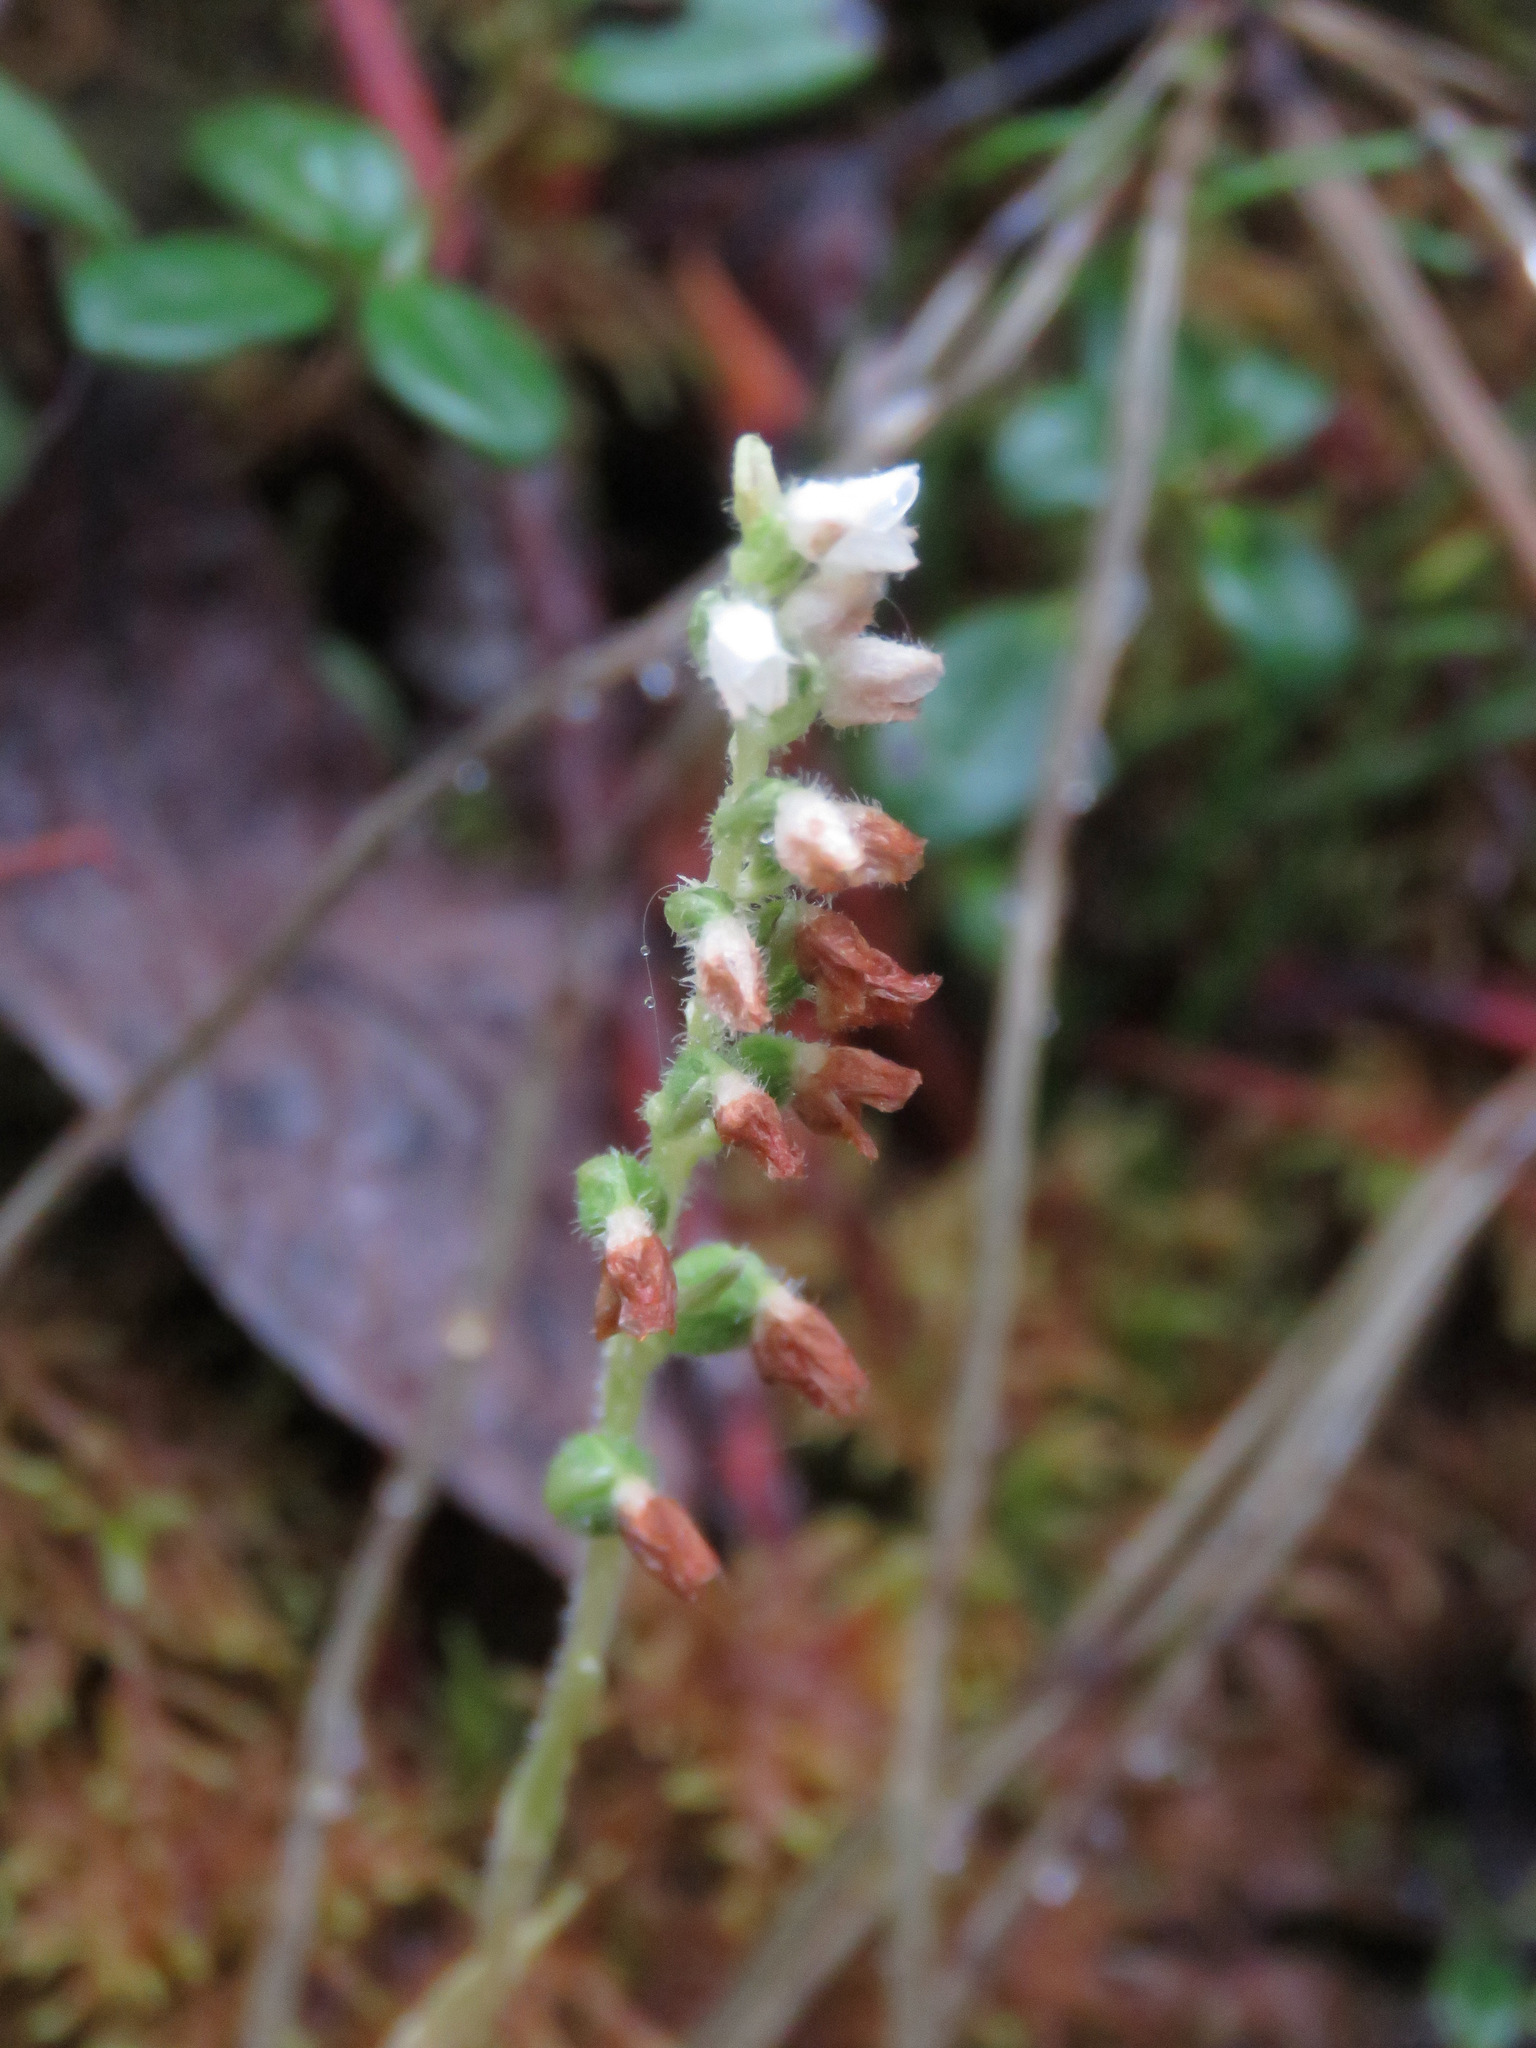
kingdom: Plantae
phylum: Tracheophyta
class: Liliopsida
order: Asparagales
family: Orchidaceae
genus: Goodyera
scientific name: Goodyera repens
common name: Creeping lady's-tresses
